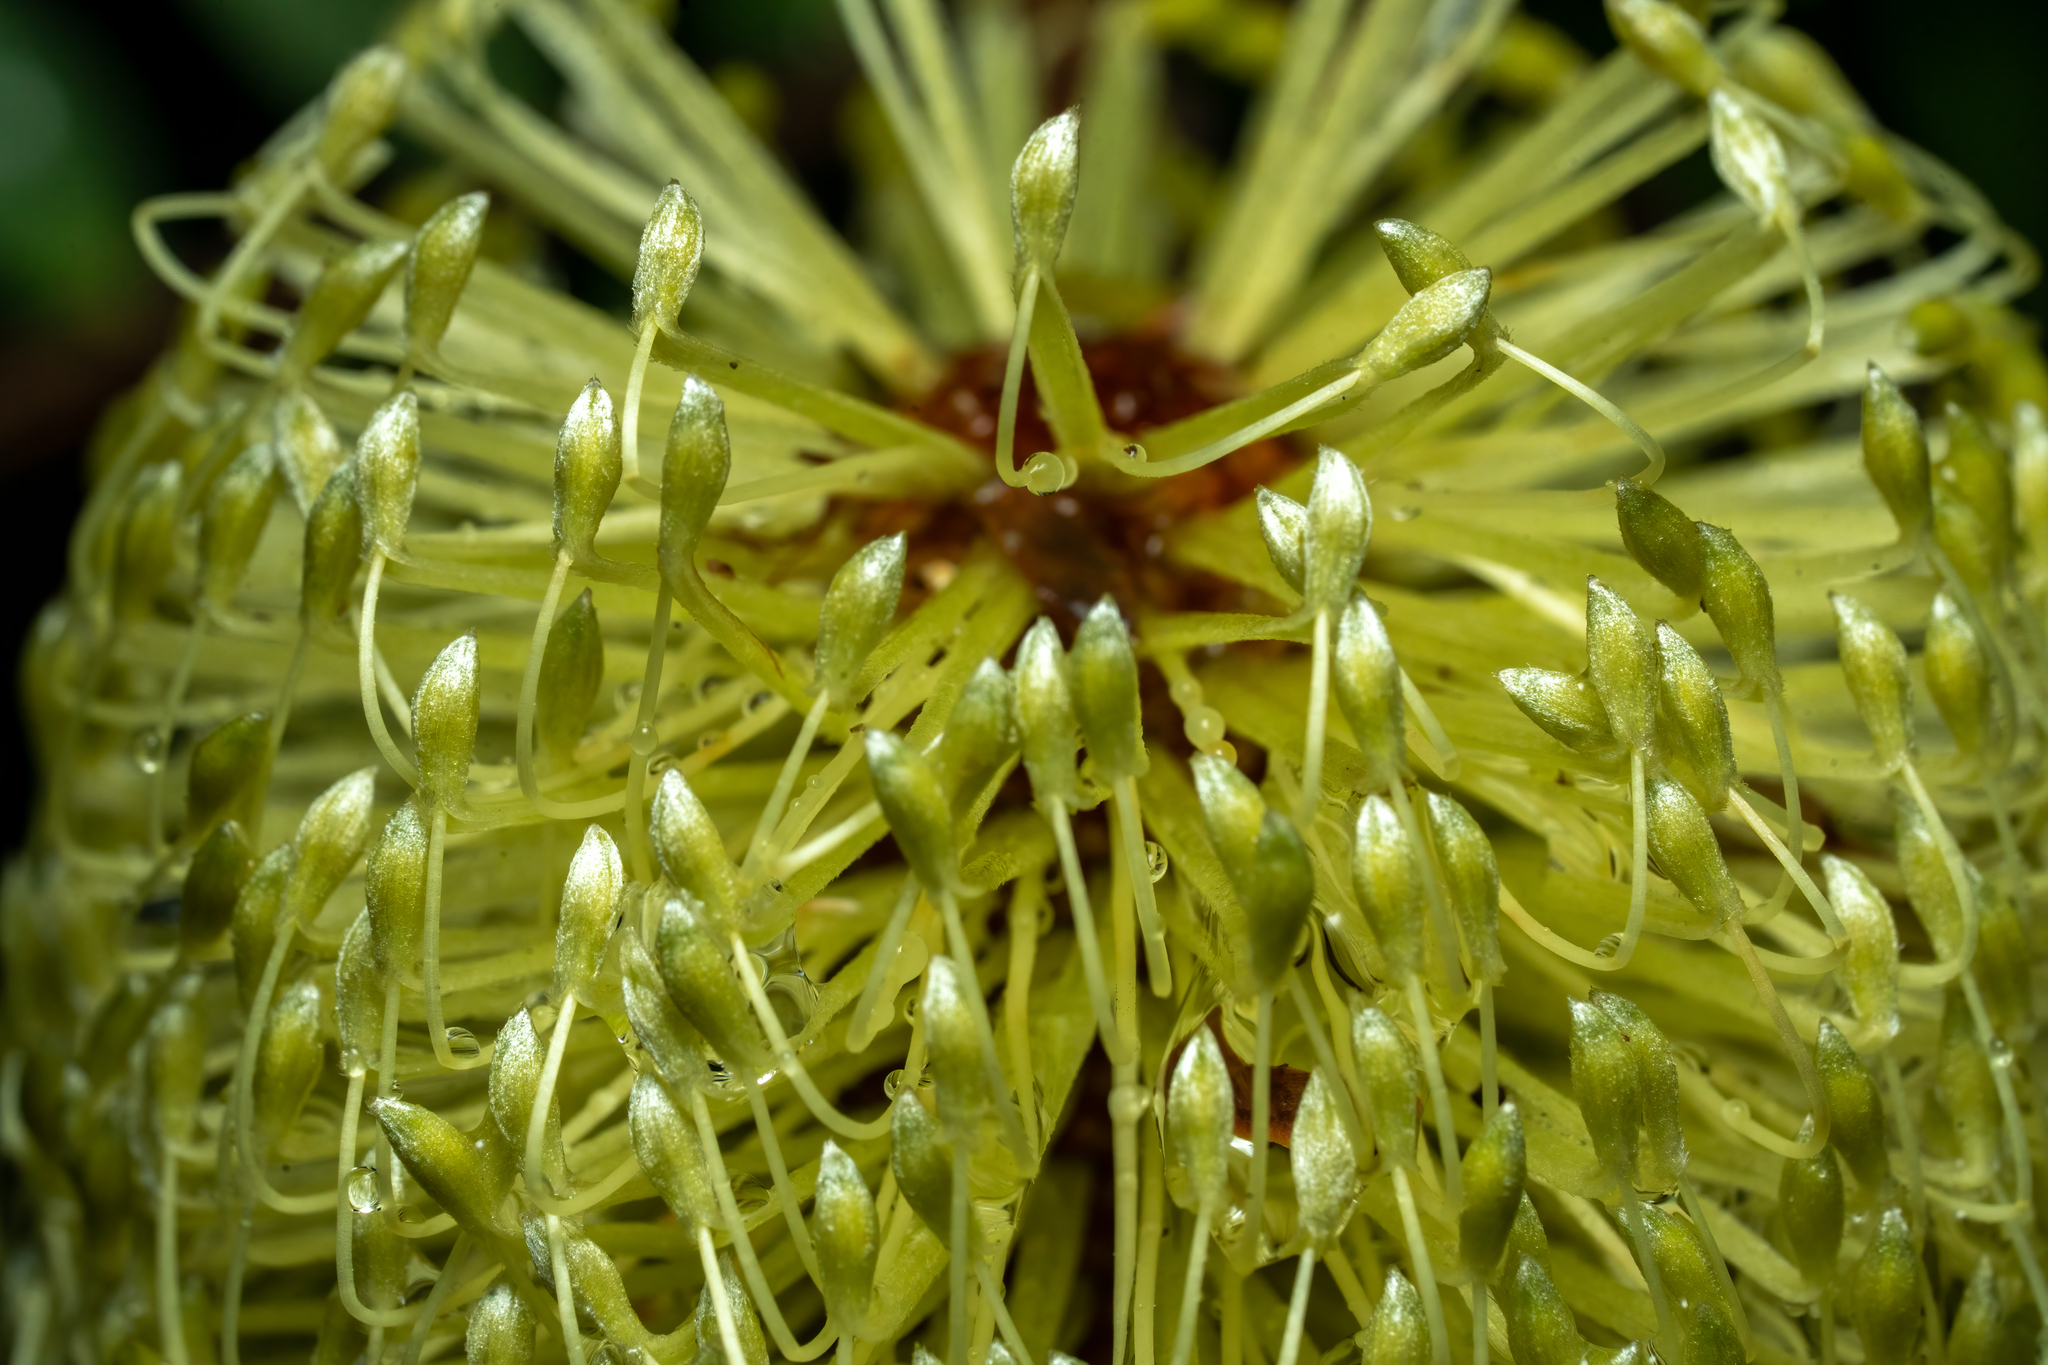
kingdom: Plantae
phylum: Tracheophyta
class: Magnoliopsida
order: Proteales
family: Proteaceae
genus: Banksia
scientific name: Banksia marginata
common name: Silver banksia
